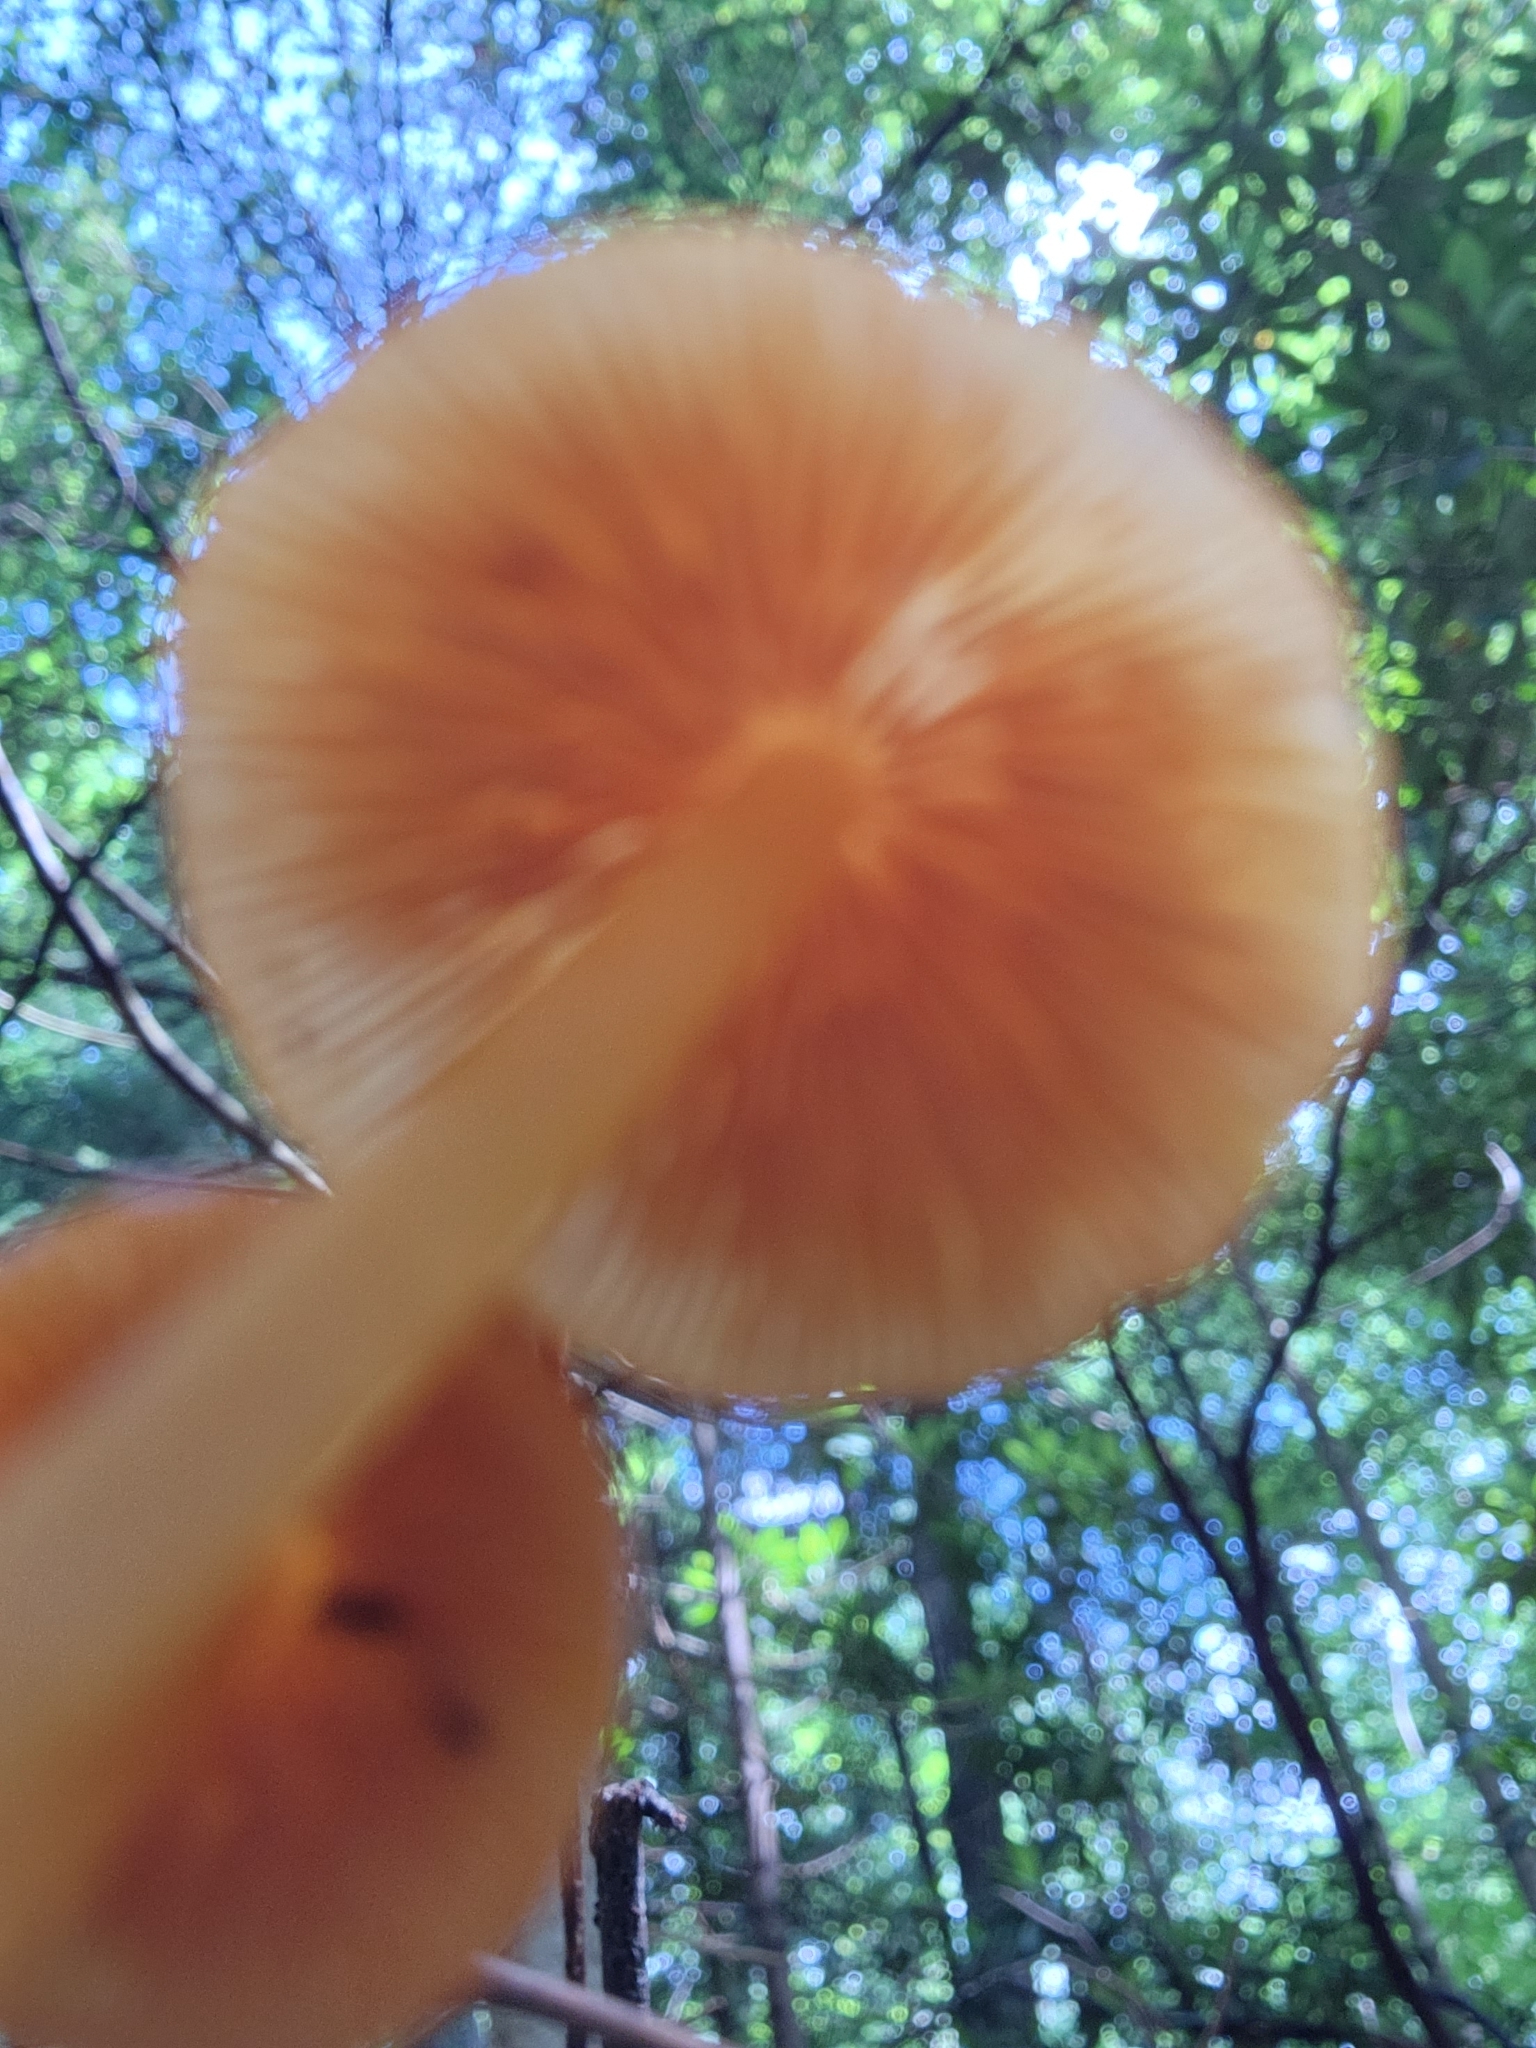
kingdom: Fungi
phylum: Basidiomycota
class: Agaricomycetes
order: Agaricales
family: Mycenaceae
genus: Mycena
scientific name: Mycena leaiana
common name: Orange mycena
